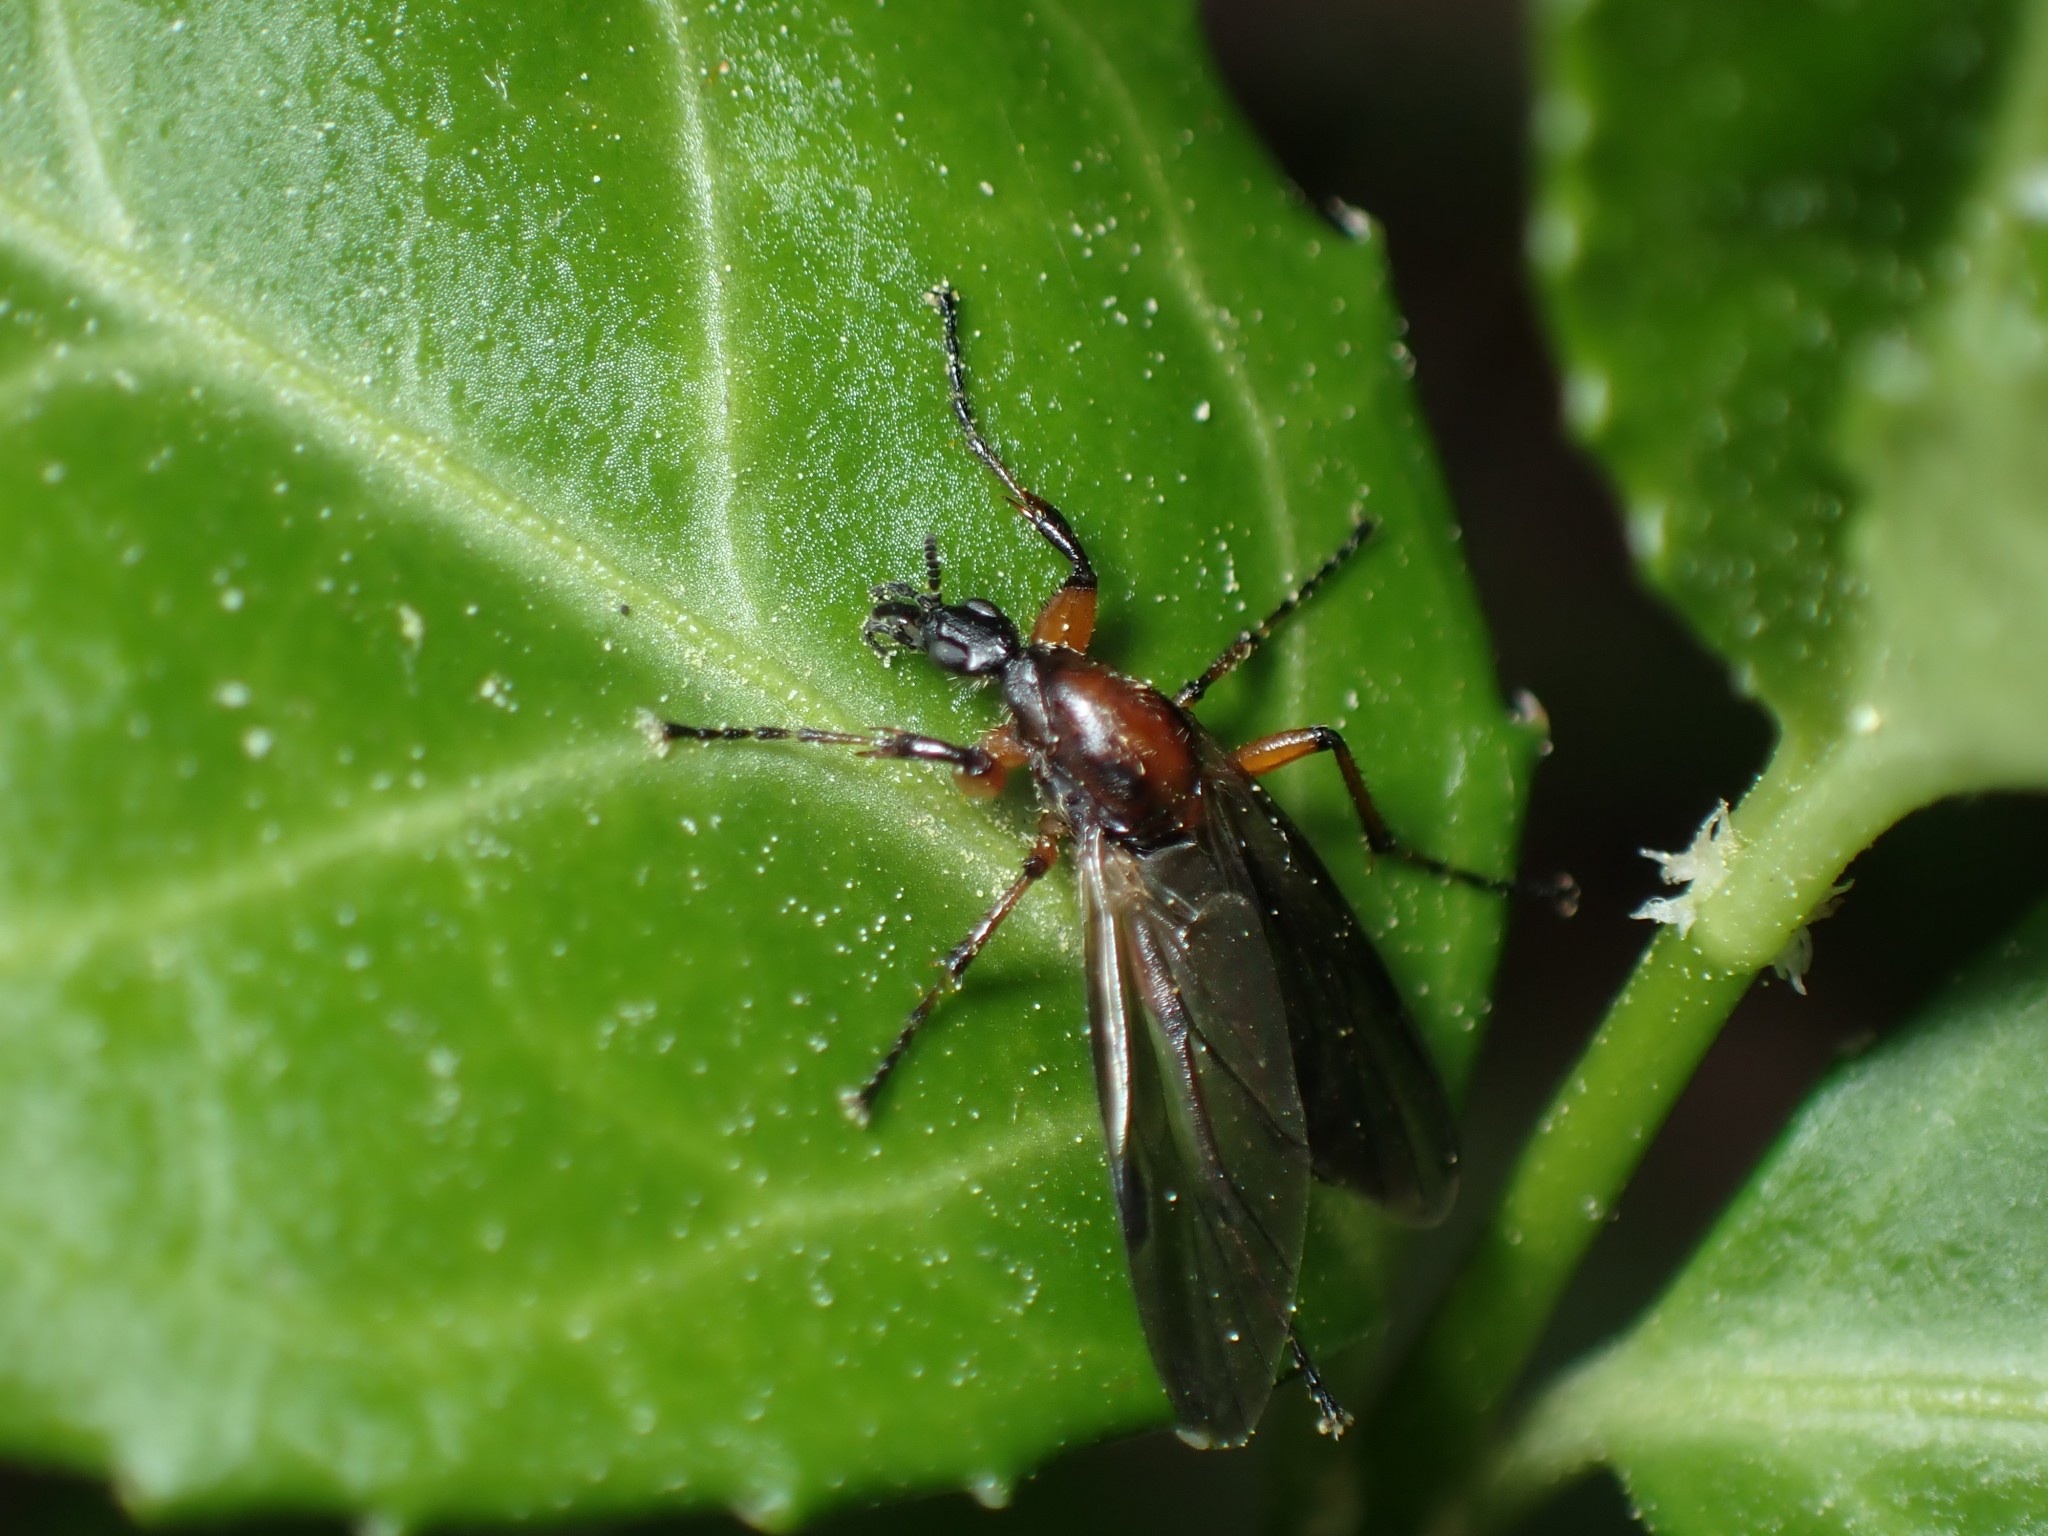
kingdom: Animalia
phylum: Arthropoda
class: Insecta
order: Diptera
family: Bibionidae
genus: Bibio
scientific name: Bibio articulatus
